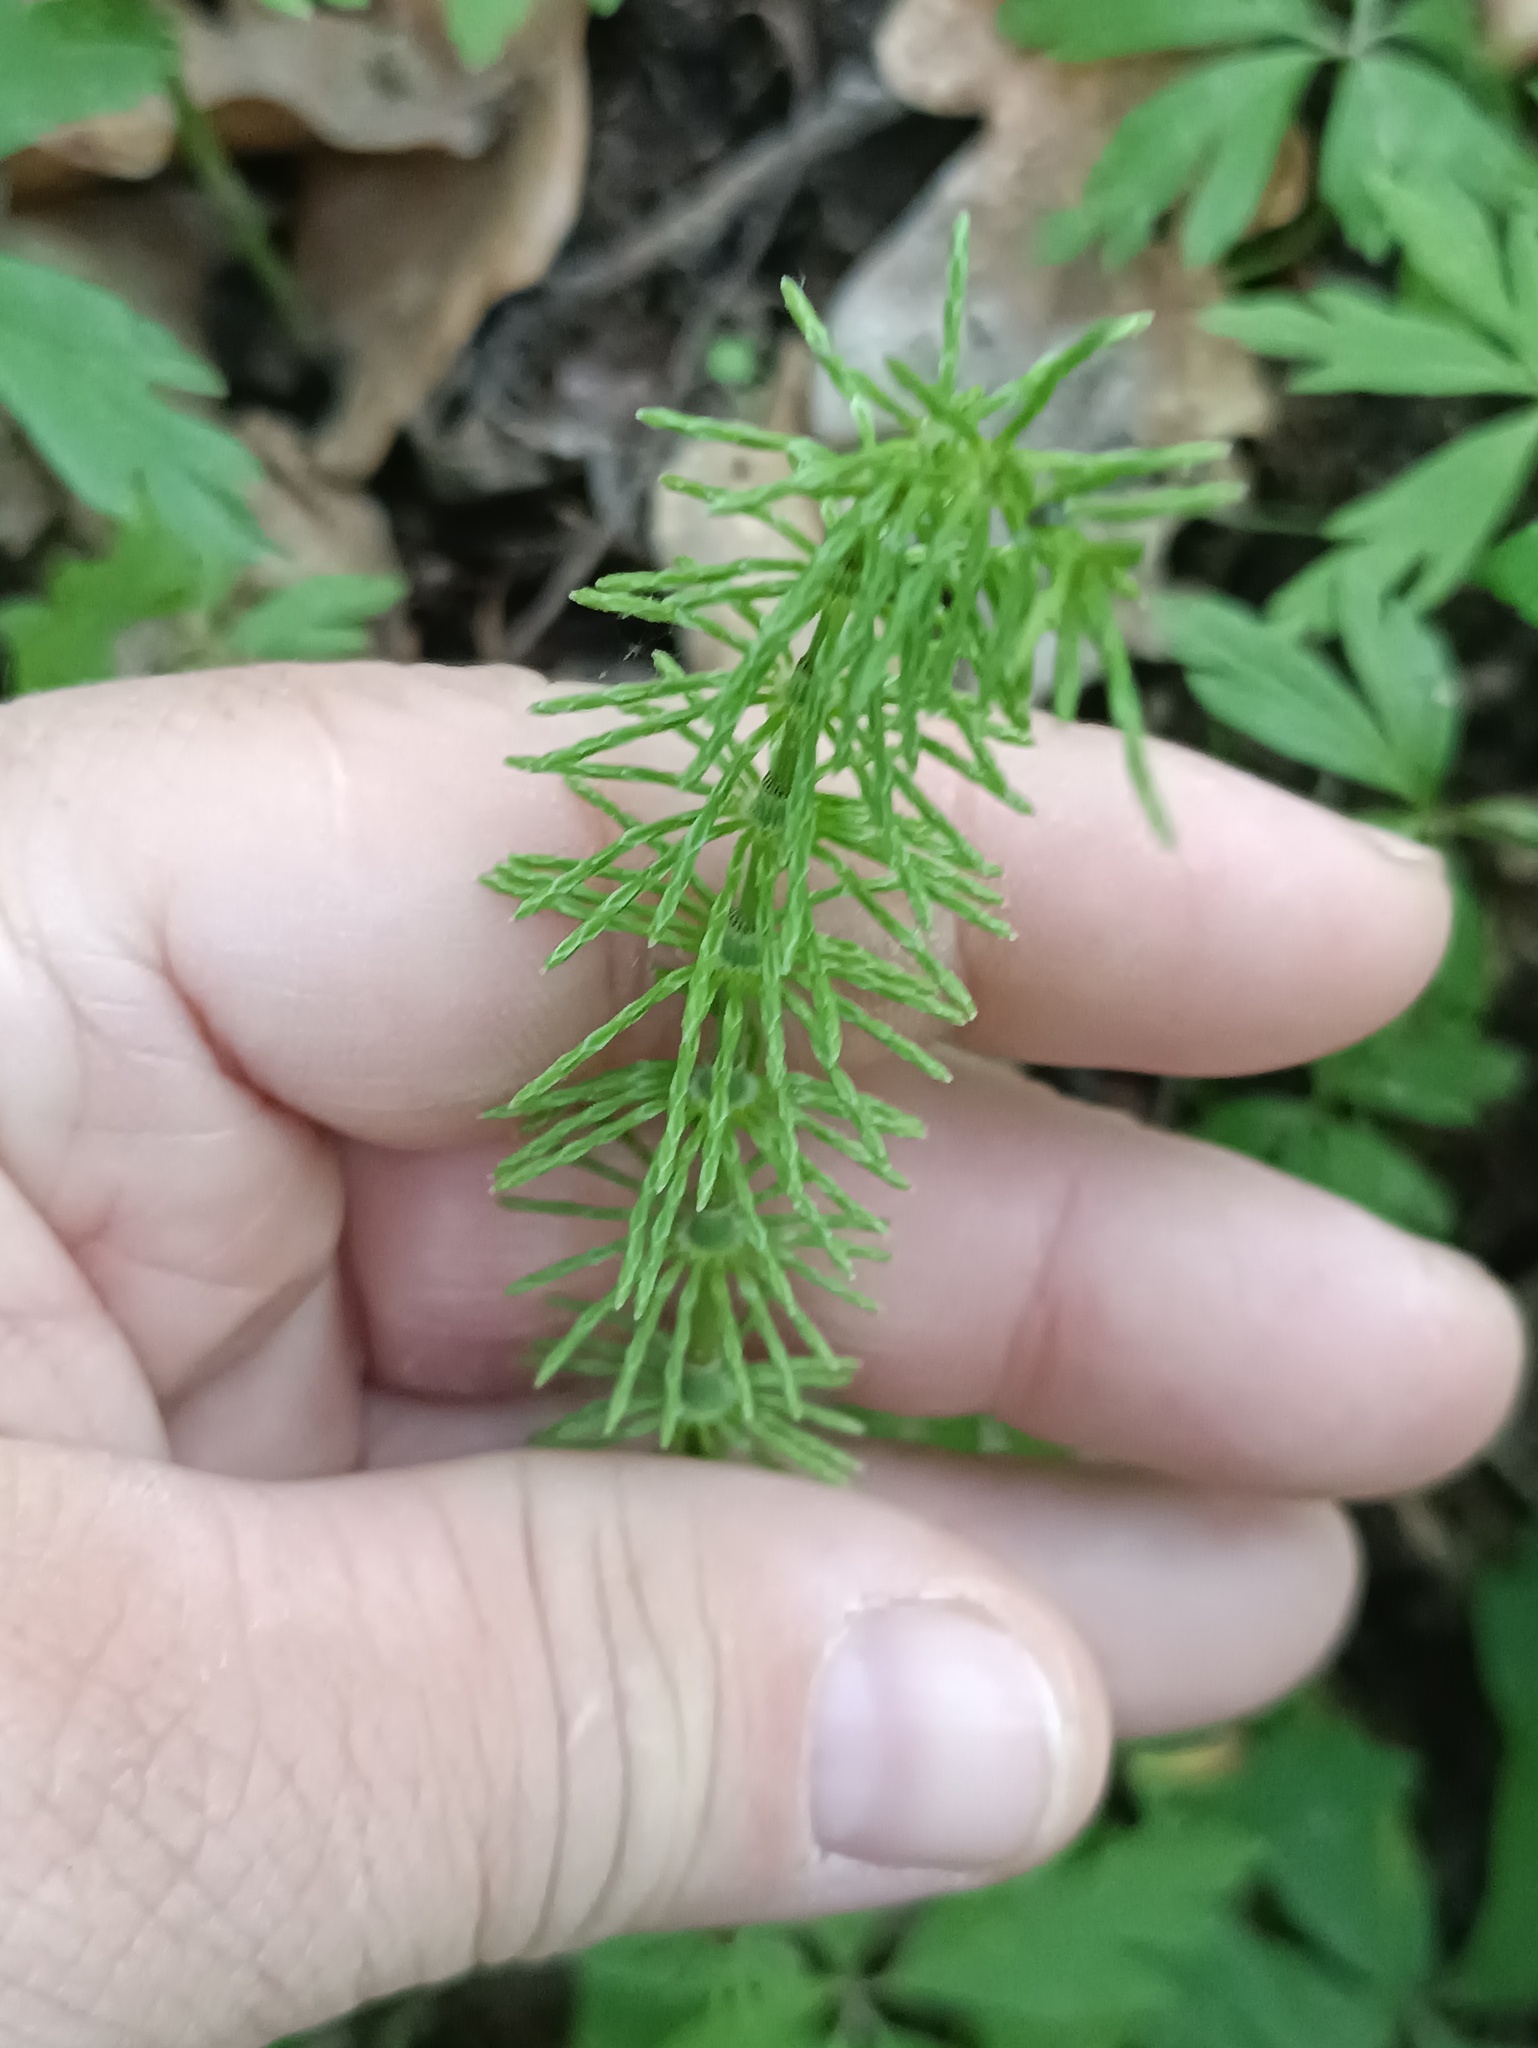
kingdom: Plantae
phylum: Tracheophyta
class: Polypodiopsida
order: Equisetales
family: Equisetaceae
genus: Equisetum
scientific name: Equisetum pratense
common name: Meadow horsetail
